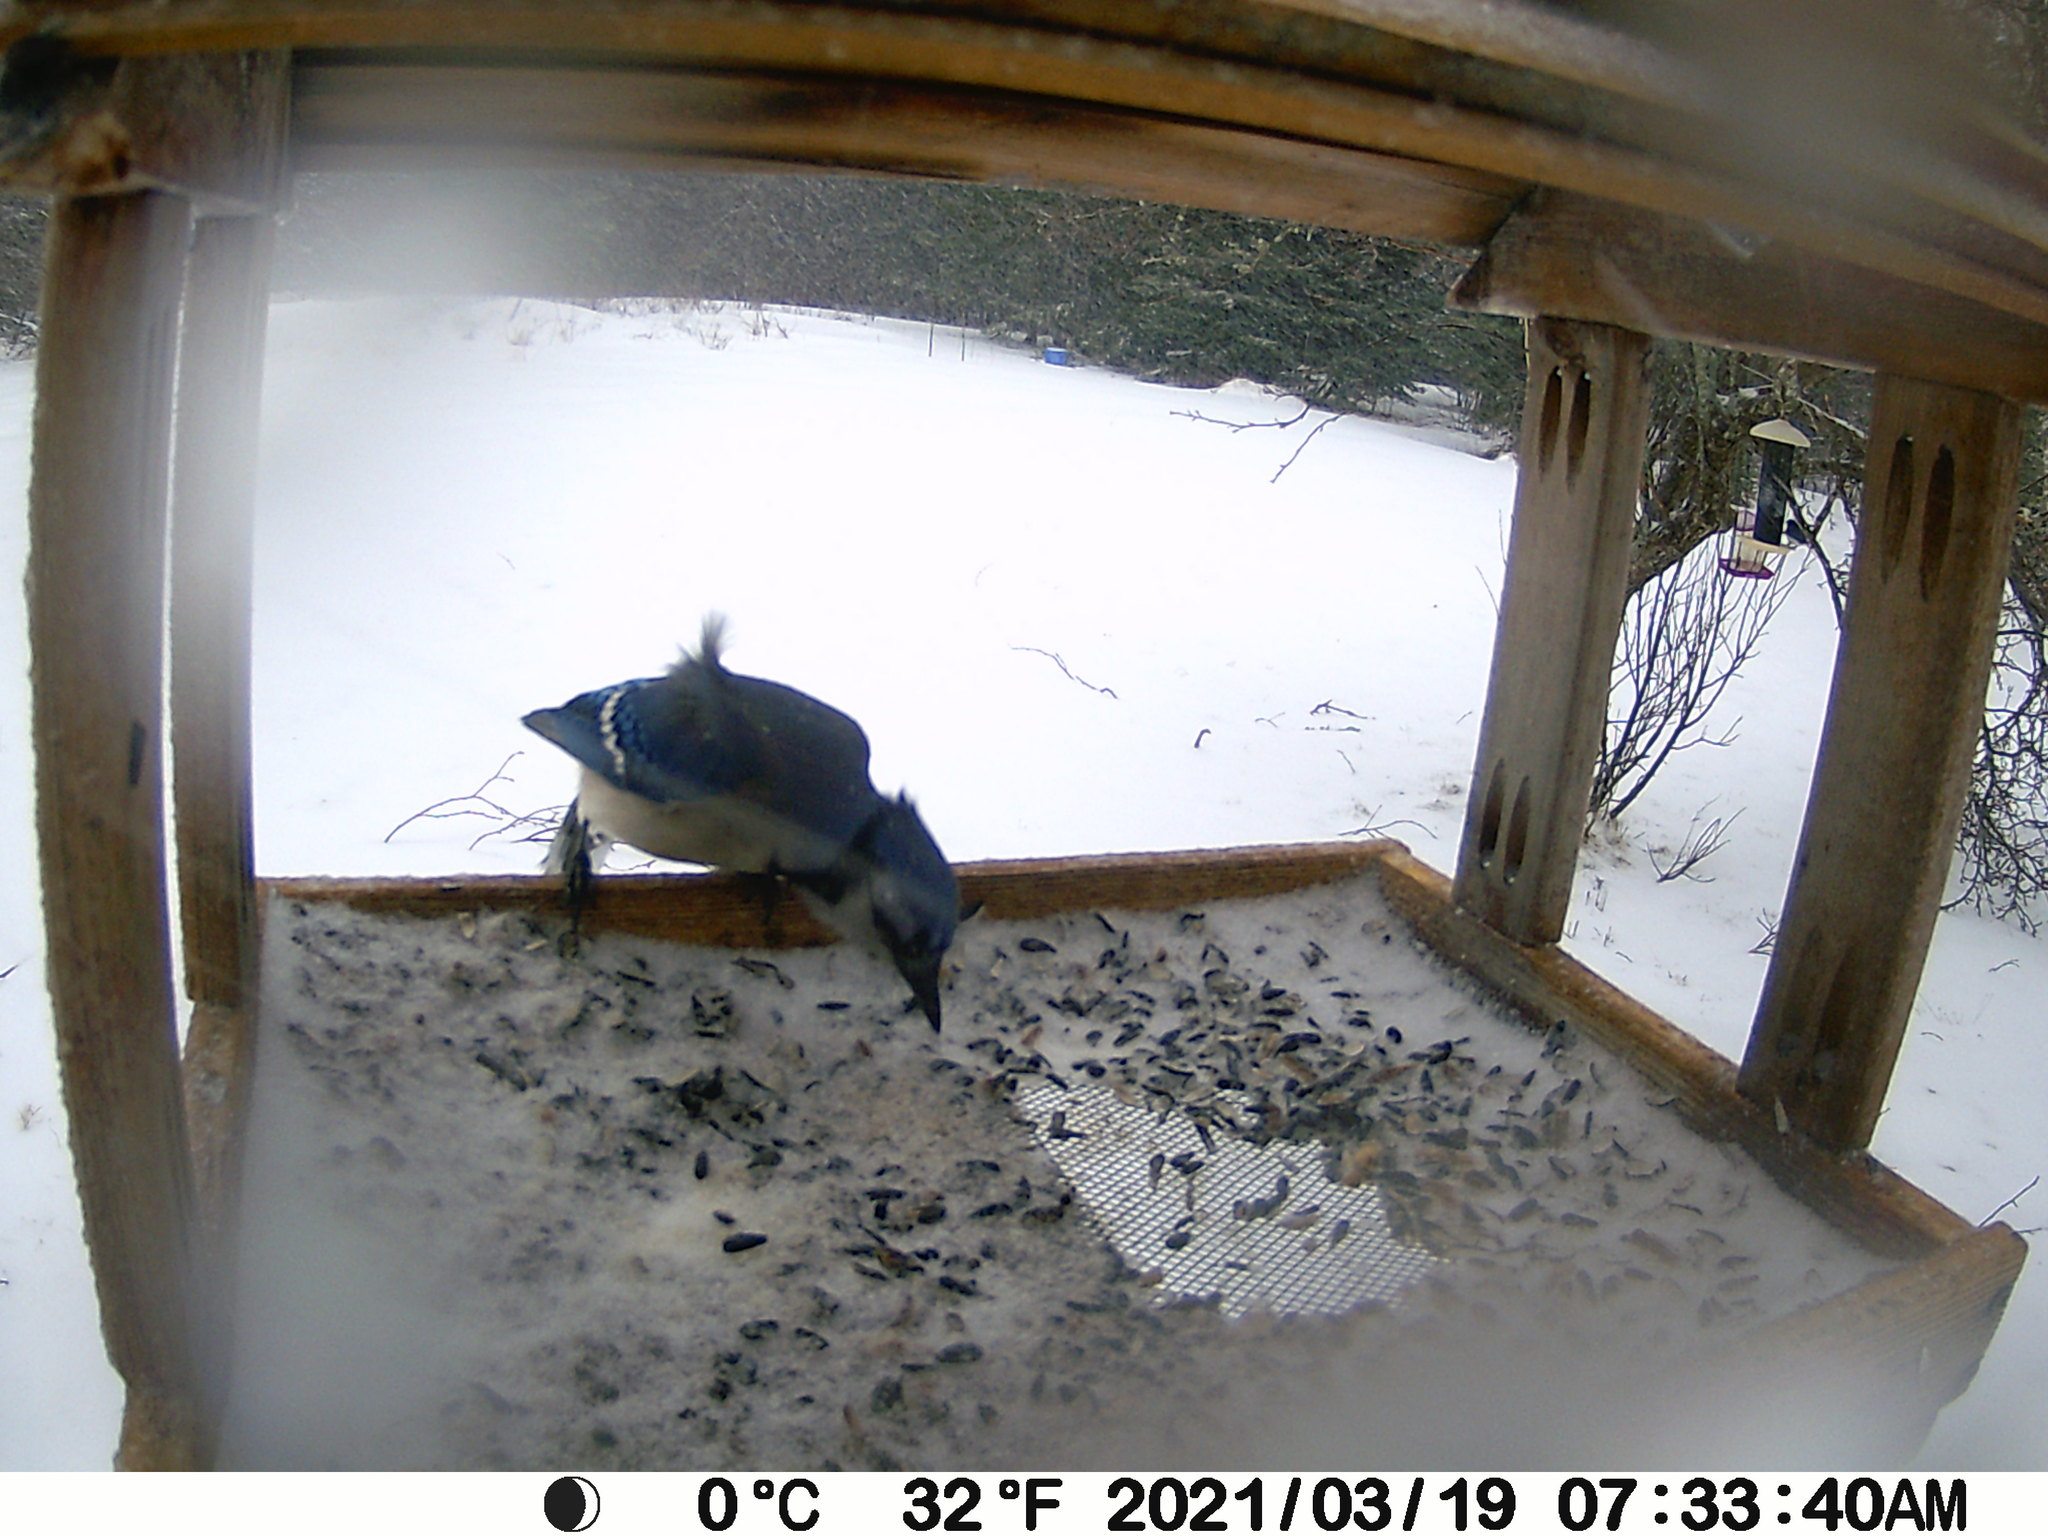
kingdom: Animalia
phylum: Chordata
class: Aves
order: Passeriformes
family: Corvidae
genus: Cyanocitta
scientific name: Cyanocitta cristata
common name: Blue jay
